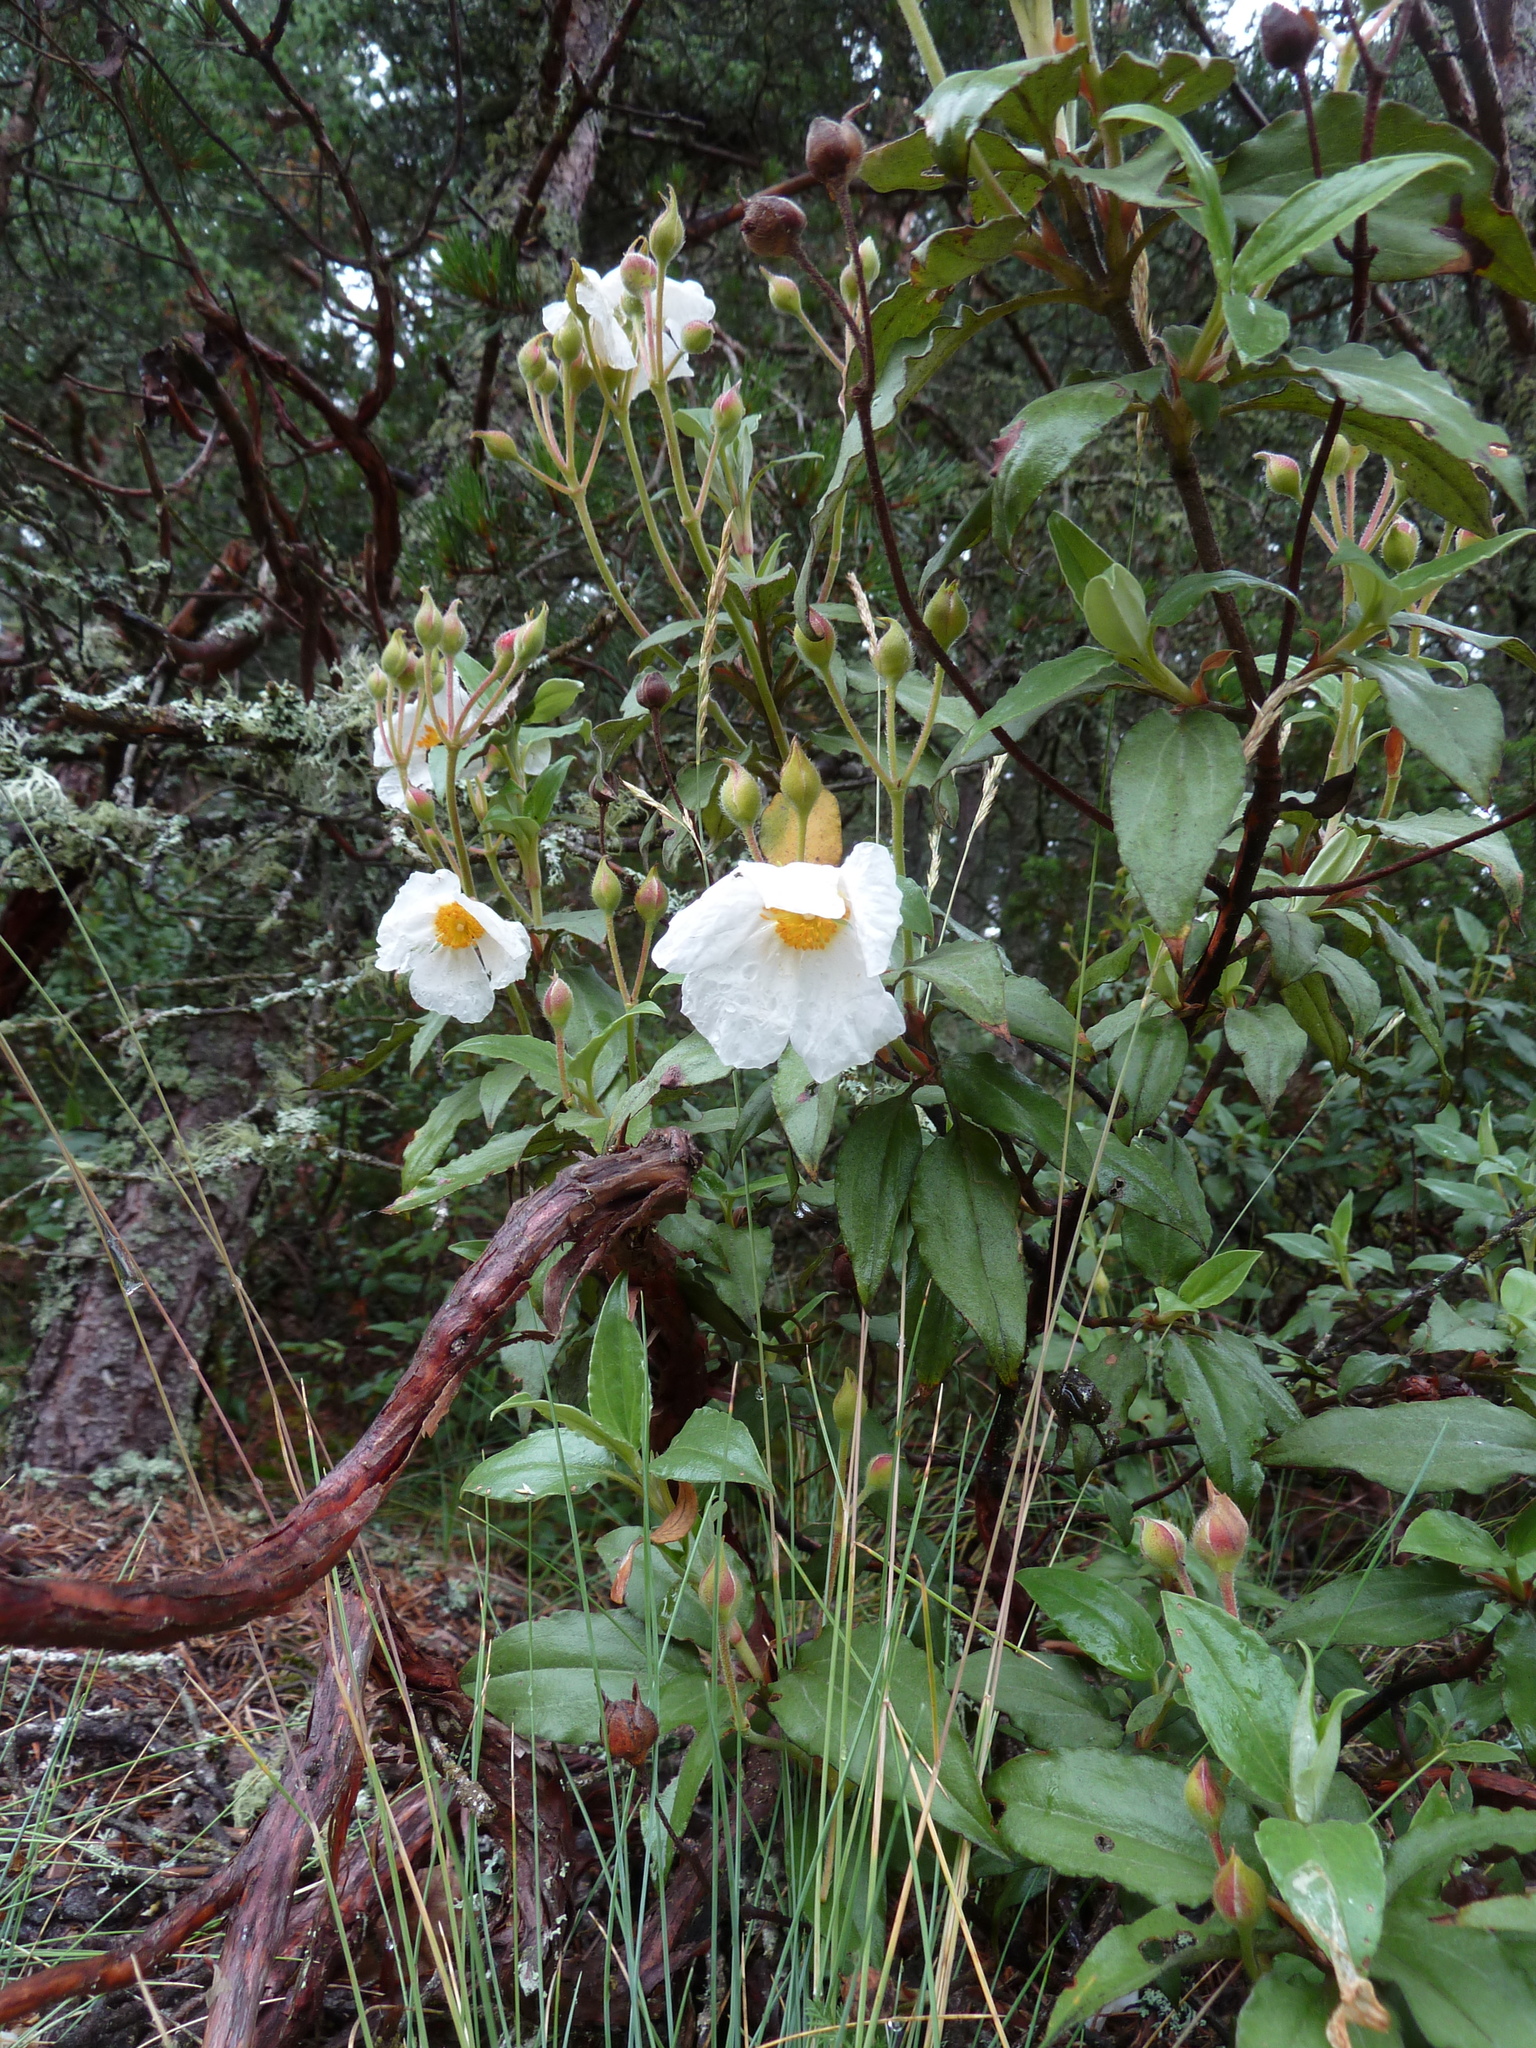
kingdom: Plantae
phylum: Tracheophyta
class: Magnoliopsida
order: Malvales
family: Cistaceae
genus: Cistus
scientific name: Cistus laurifolius
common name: Laurel-leaved cistus
